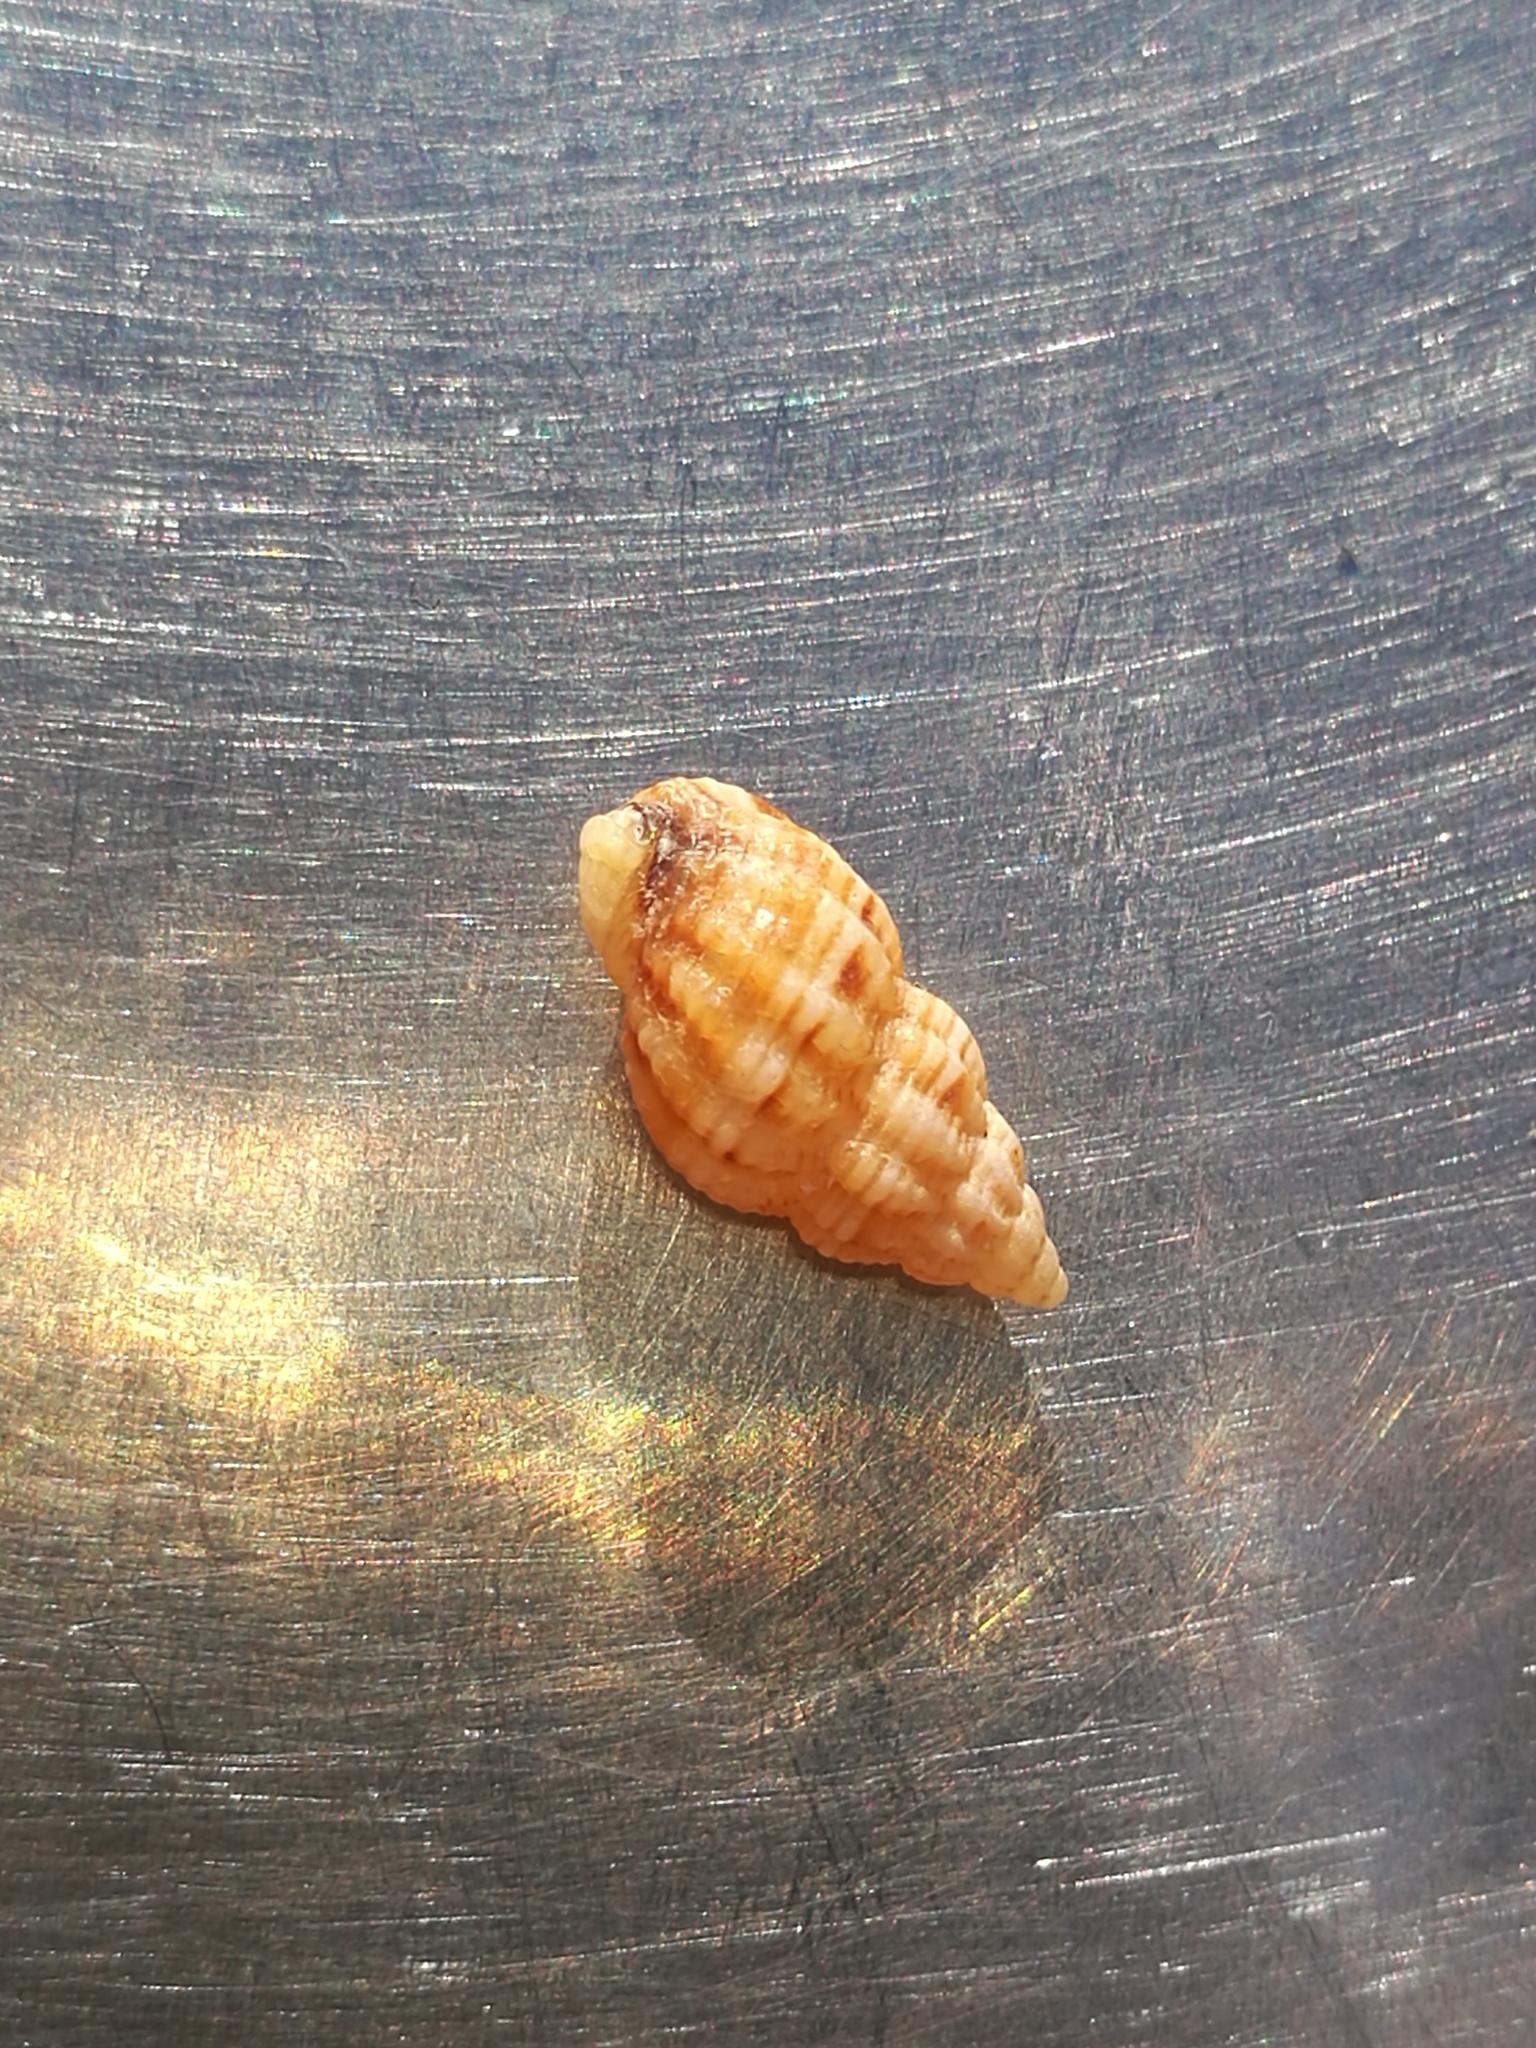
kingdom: Animalia
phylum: Mollusca
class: Gastropoda
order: Neogastropoda
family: Nassariidae
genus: Tritia
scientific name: Tritia incrassata
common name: Thick-lipped dog whelk
